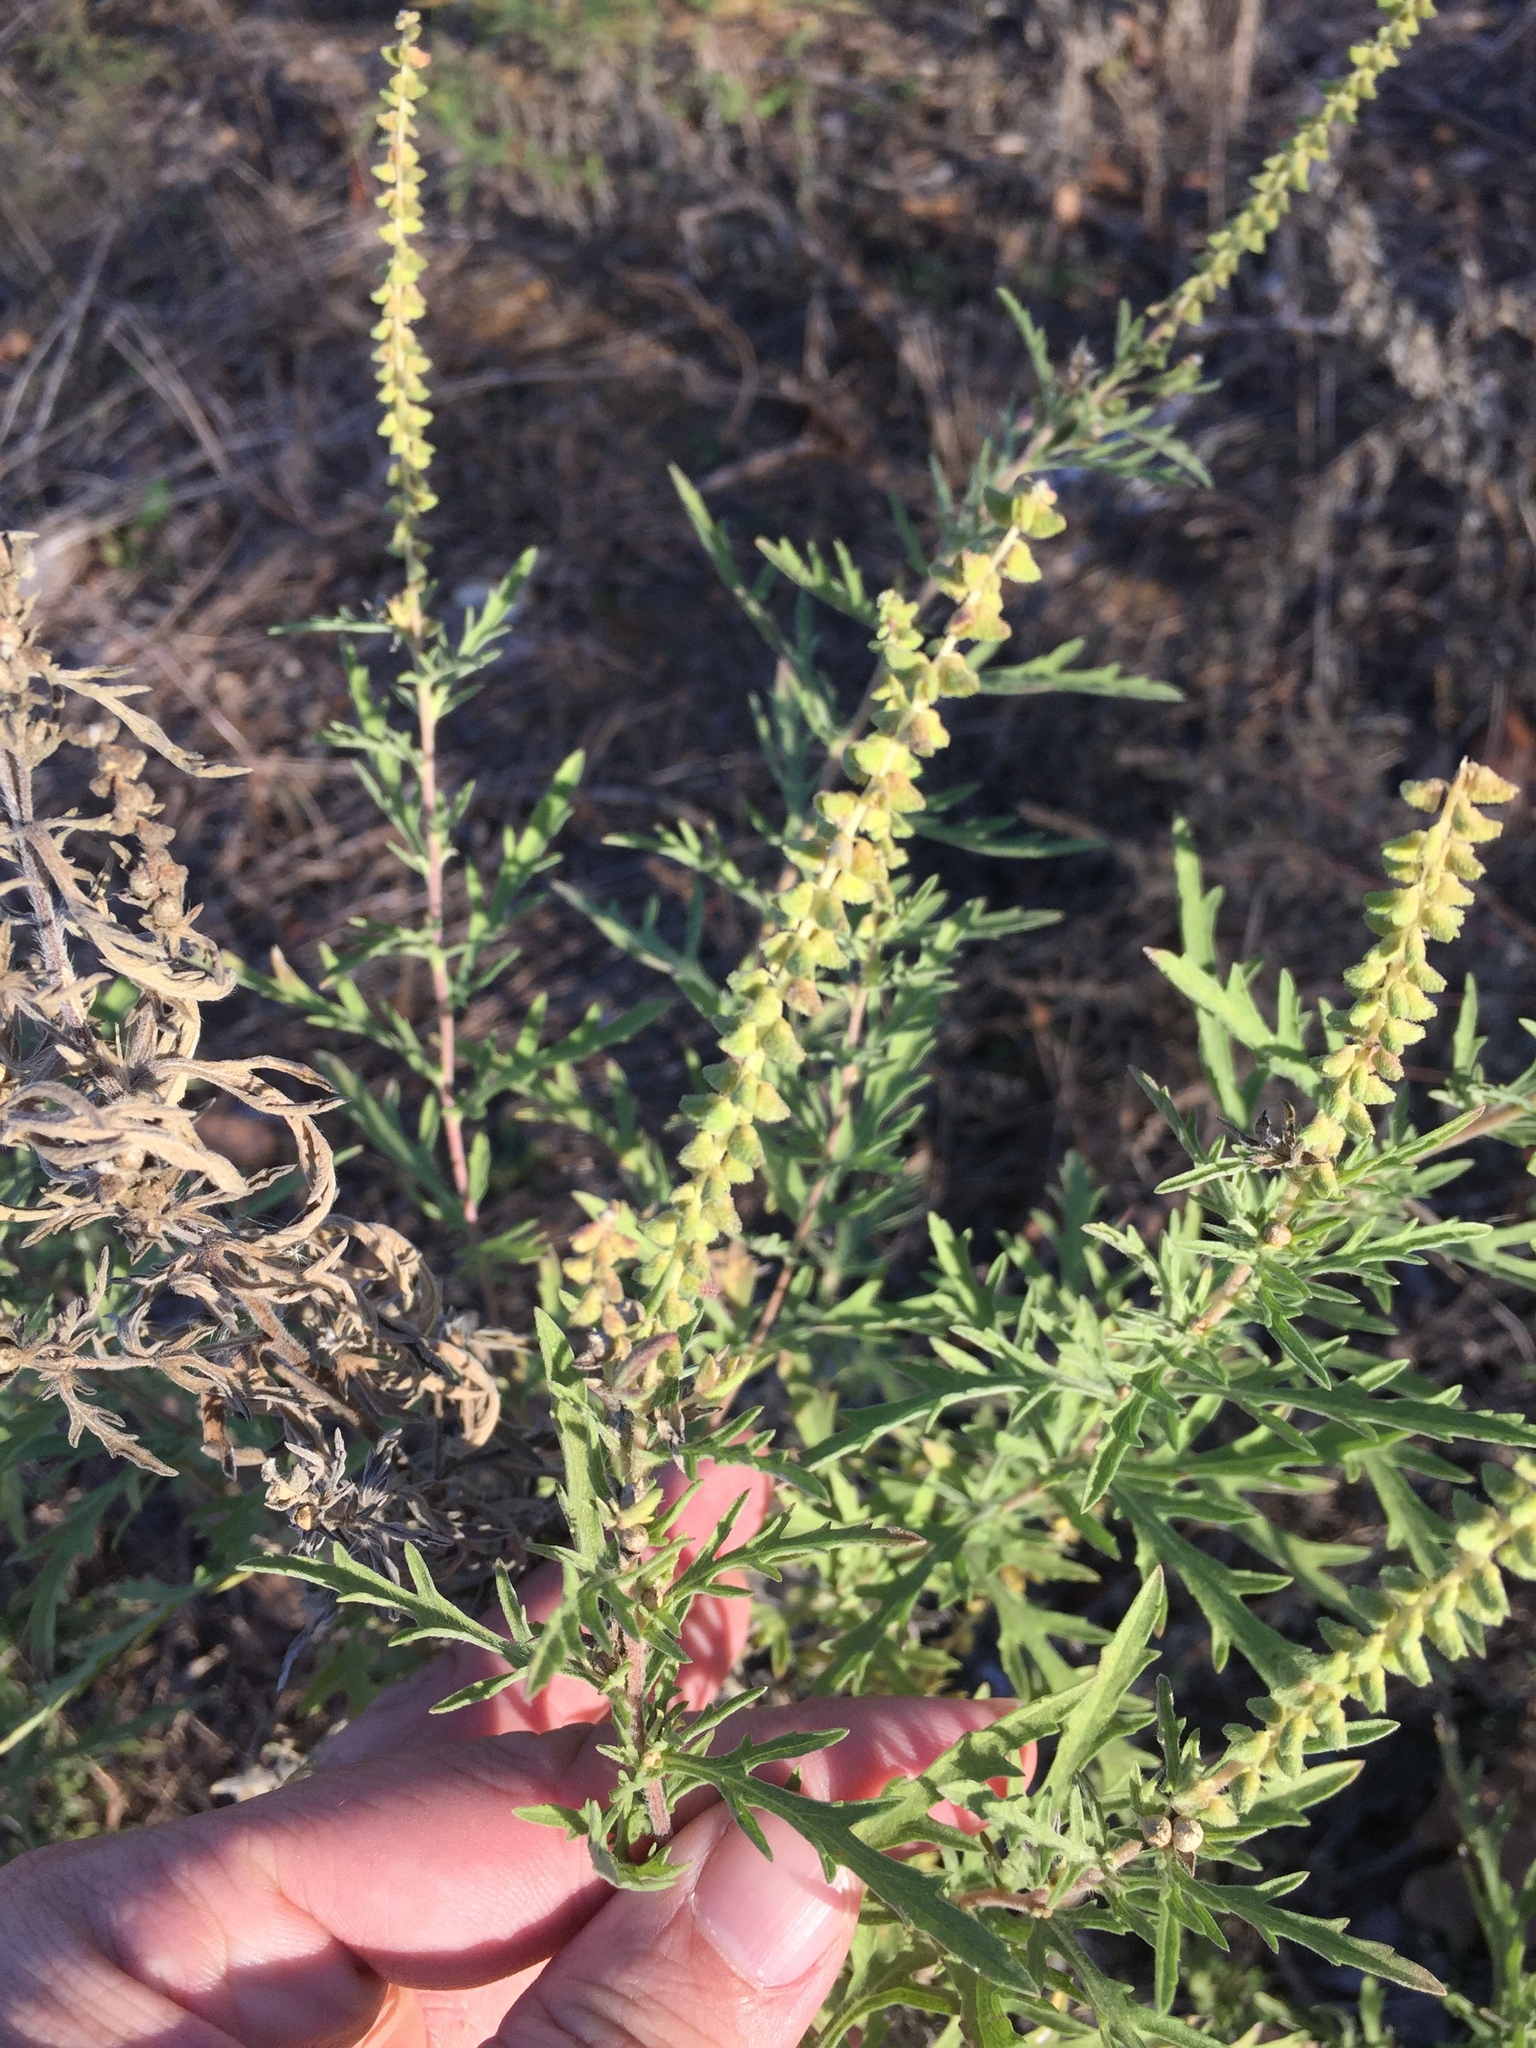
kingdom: Plantae
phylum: Tracheophyta
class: Magnoliopsida
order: Asterales
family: Asteraceae
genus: Ambrosia
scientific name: Ambrosia psilostachya
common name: Perennial ragweed
